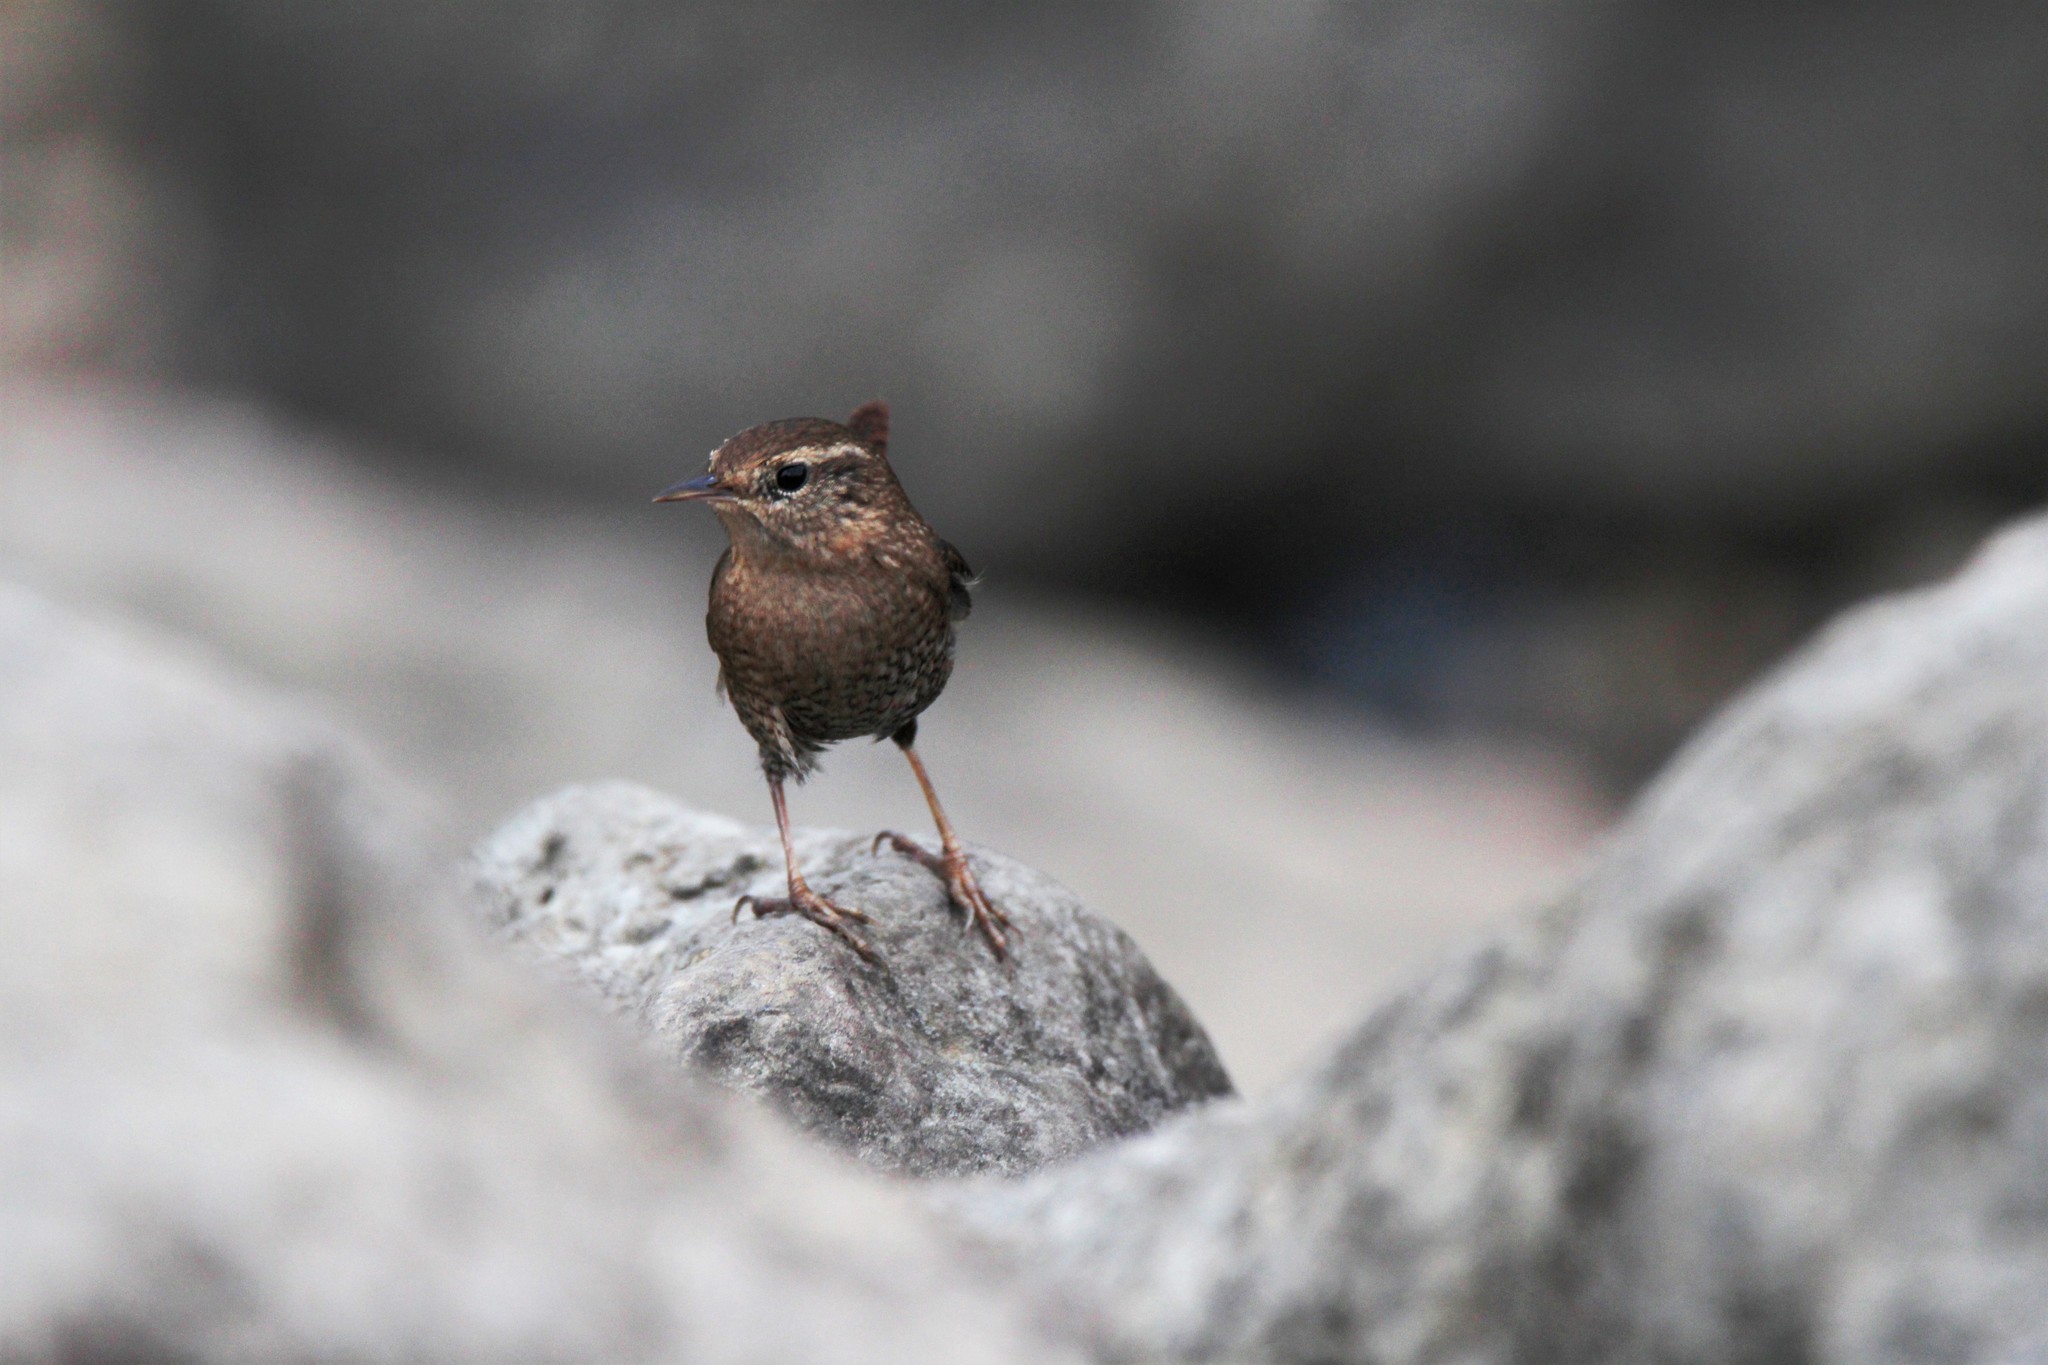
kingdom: Animalia
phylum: Chordata
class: Aves
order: Passeriformes
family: Troglodytidae
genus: Troglodytes
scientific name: Troglodytes hiemalis
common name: Winter wren
